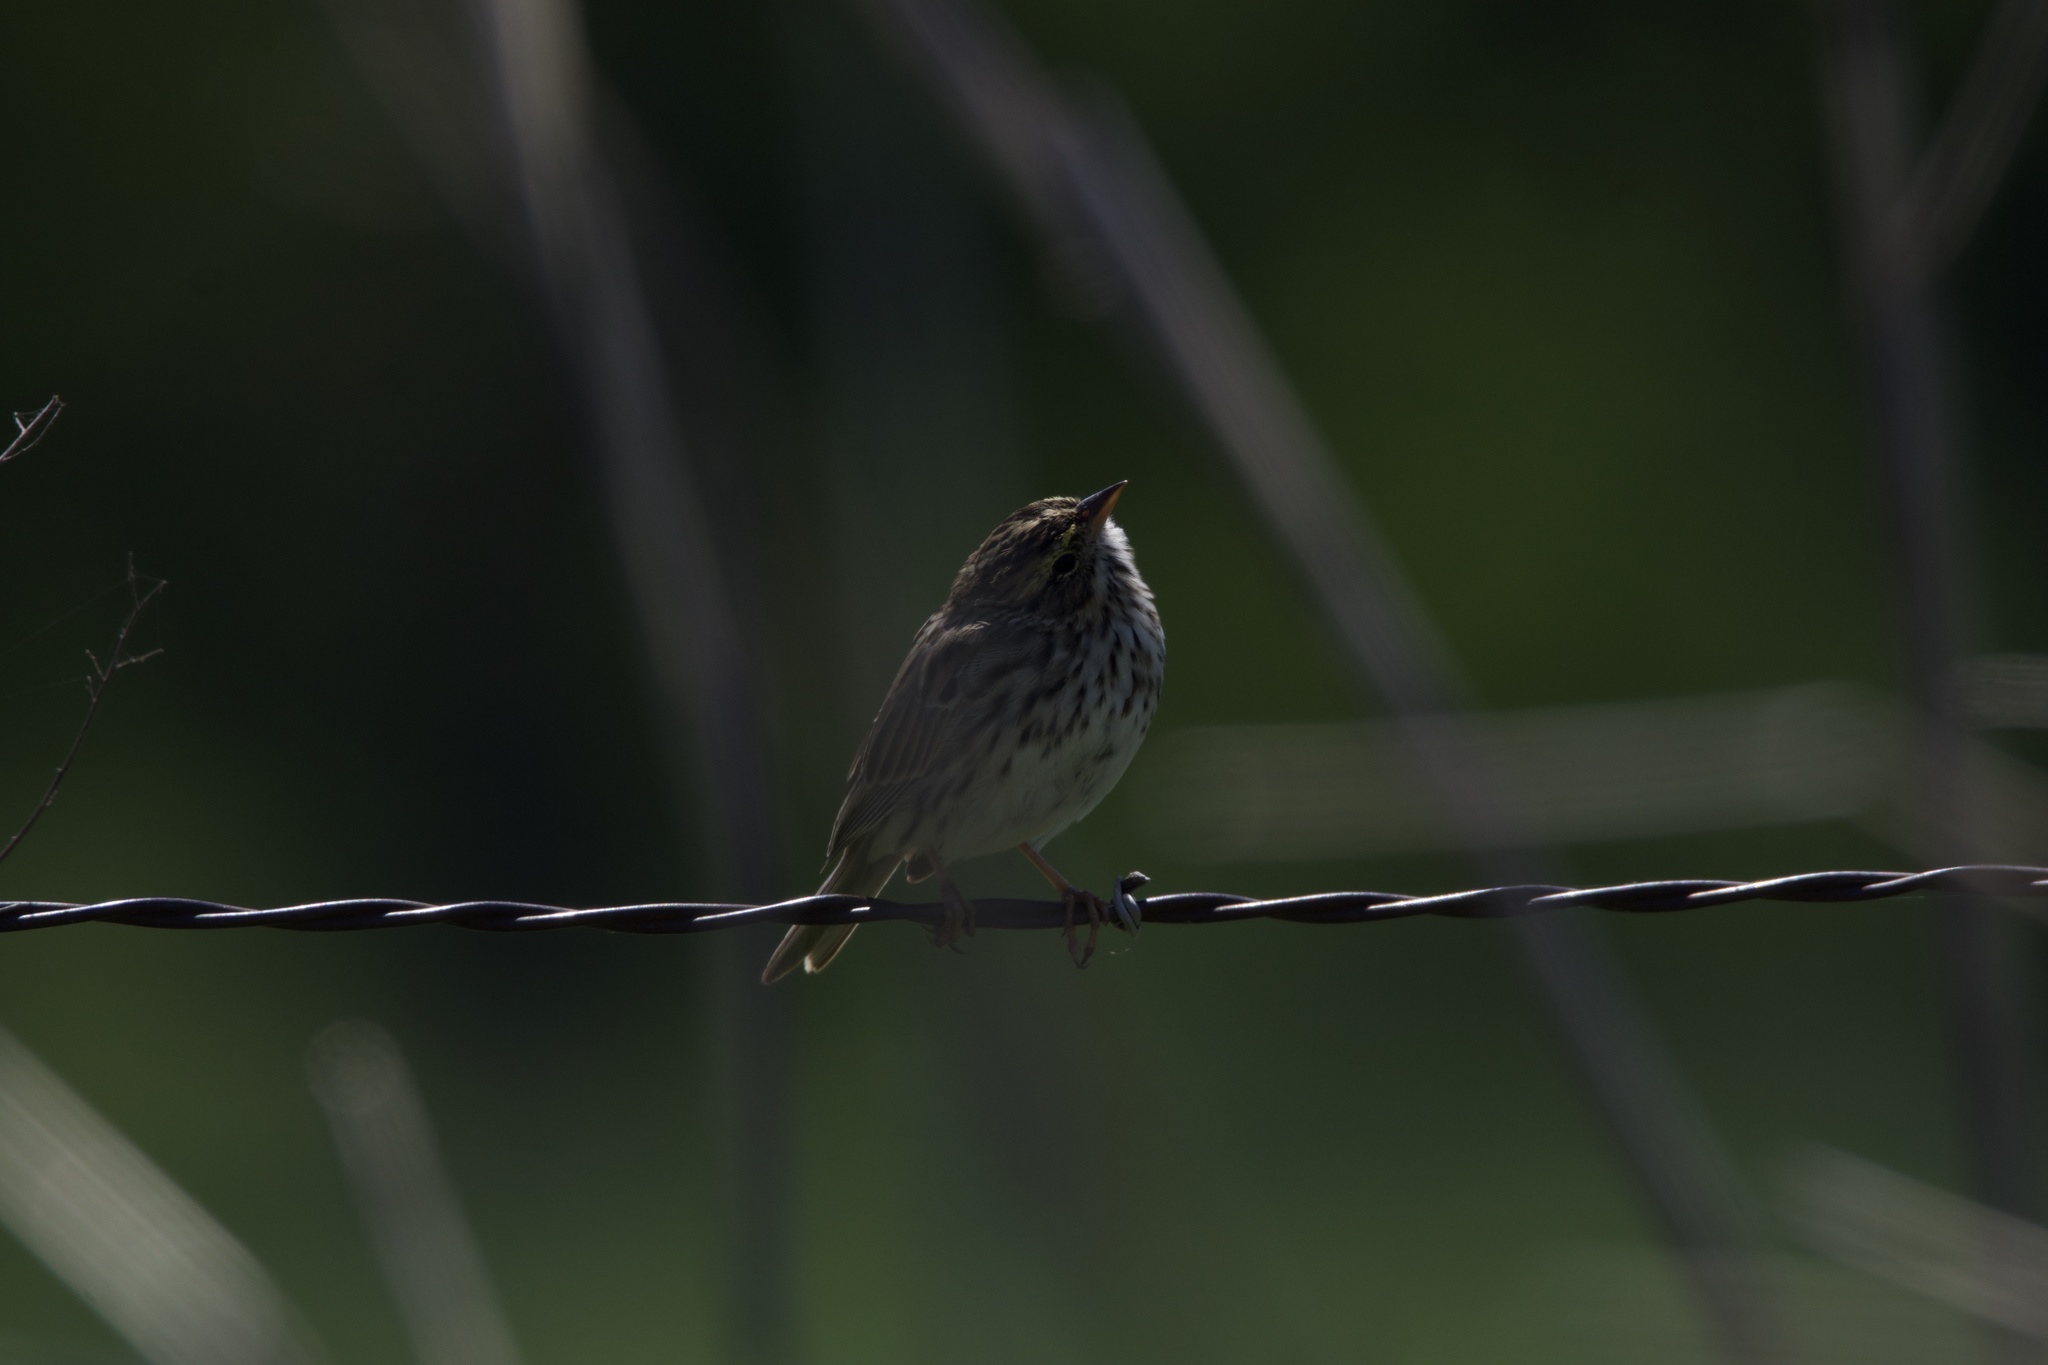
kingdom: Animalia
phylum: Chordata
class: Aves
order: Passeriformes
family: Passerellidae
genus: Passerculus
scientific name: Passerculus sandwichensis
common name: Savannah sparrow
